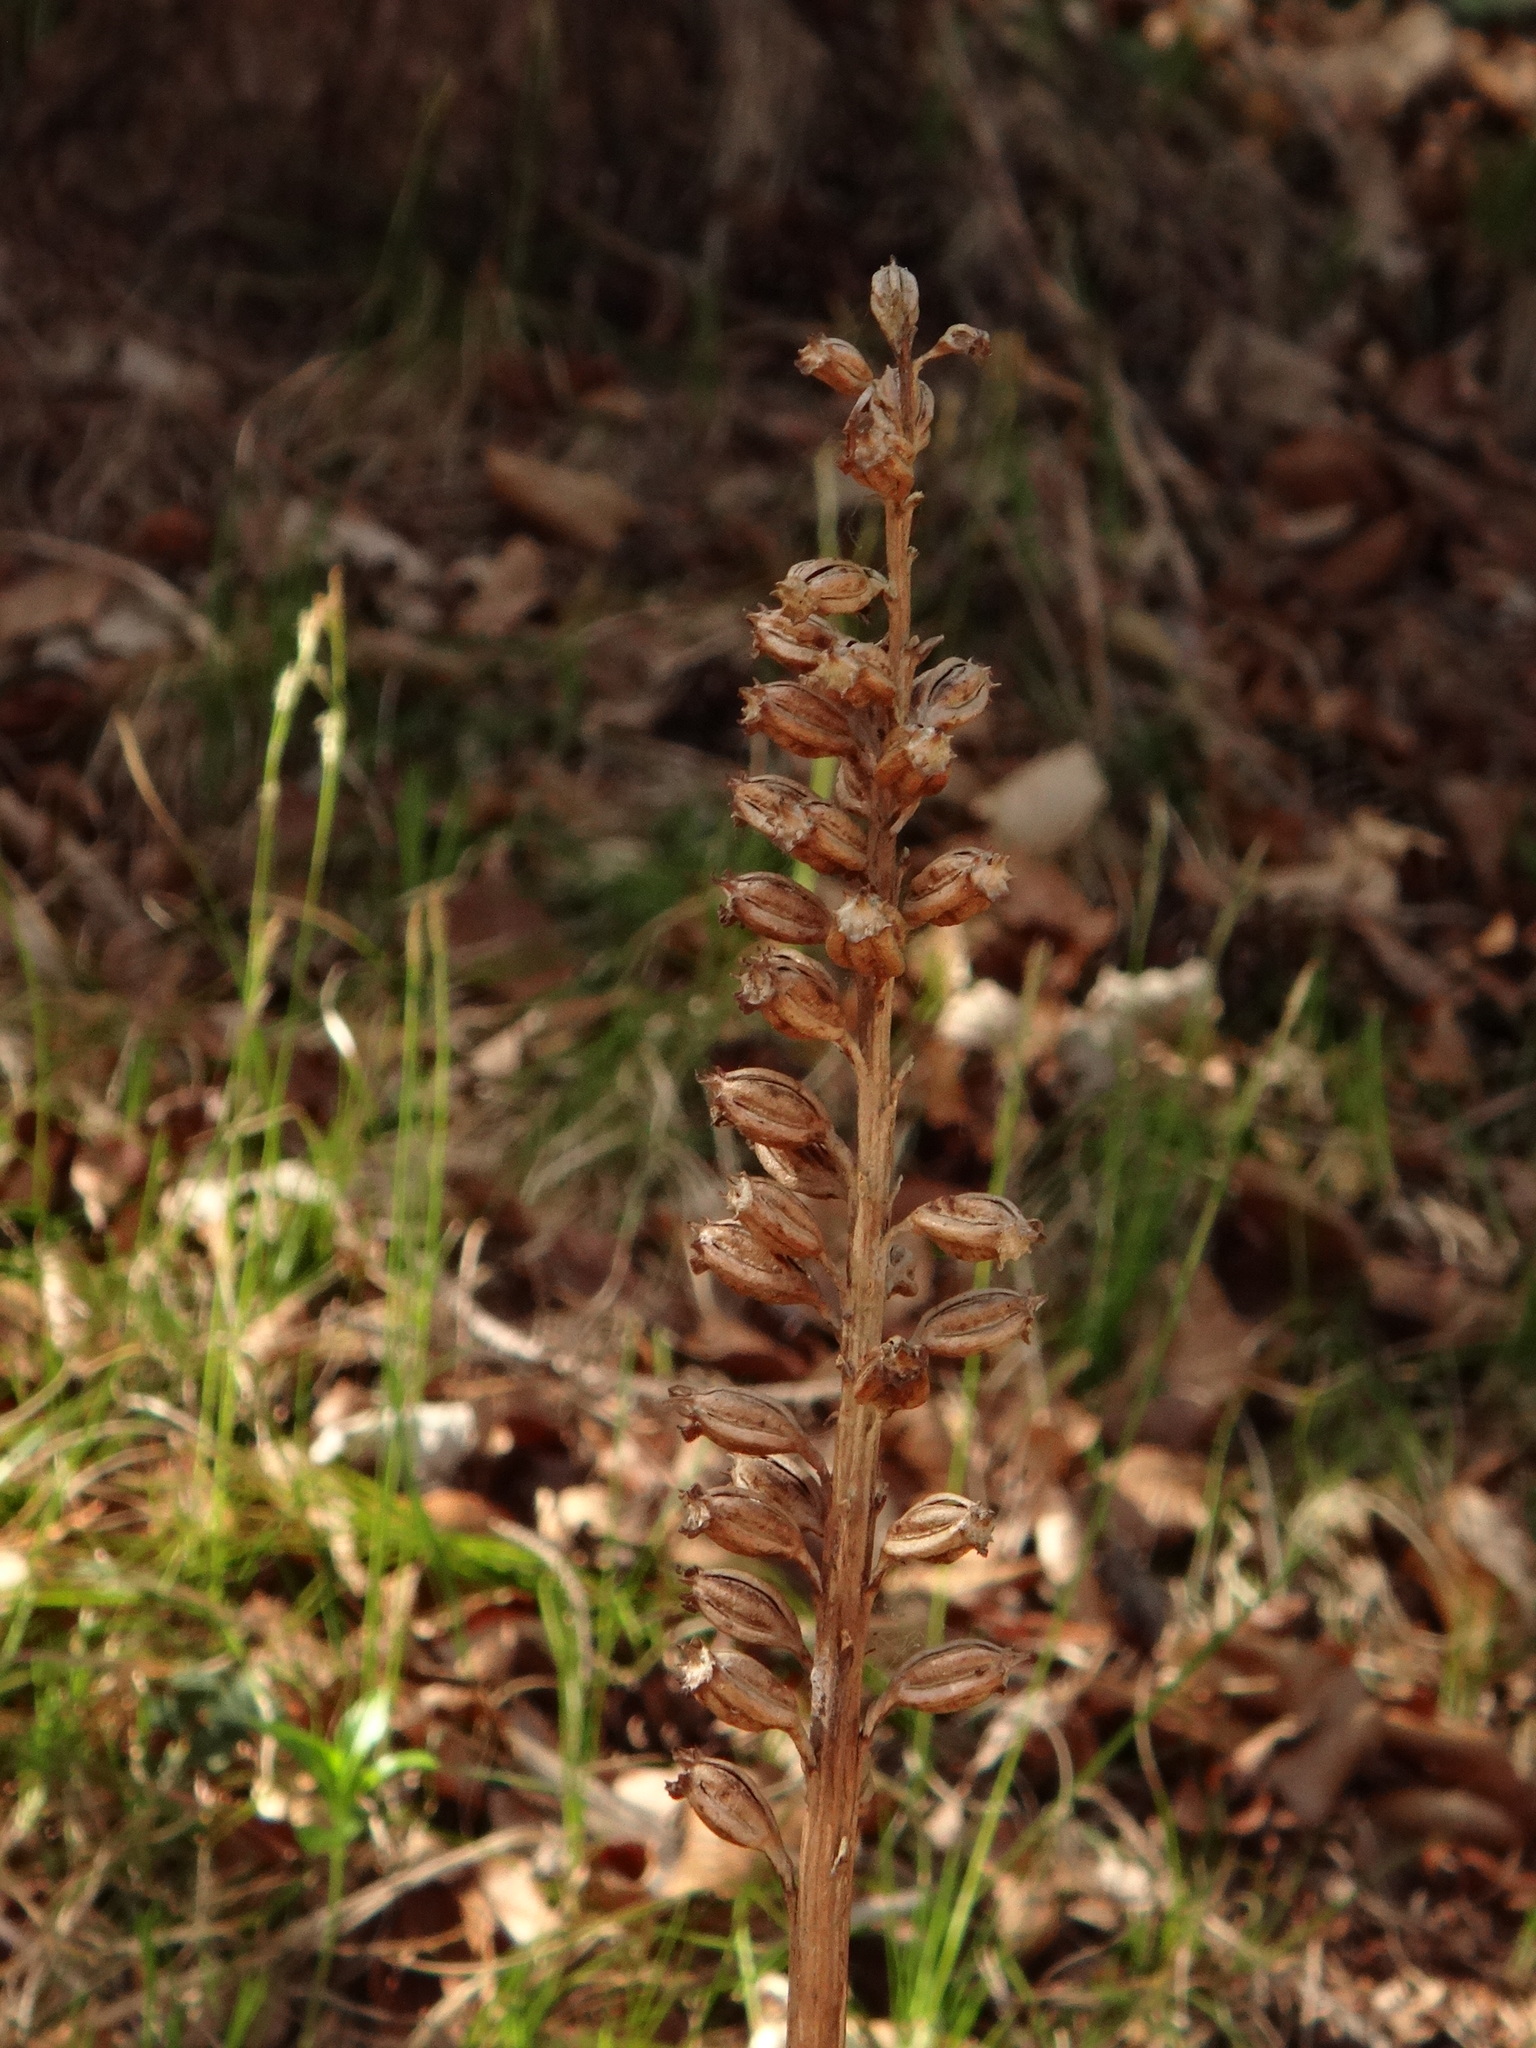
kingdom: Plantae
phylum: Tracheophyta
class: Liliopsida
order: Asparagales
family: Orchidaceae
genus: Neottia
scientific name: Neottia nidus-avis
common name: Bird's-nest orchid
